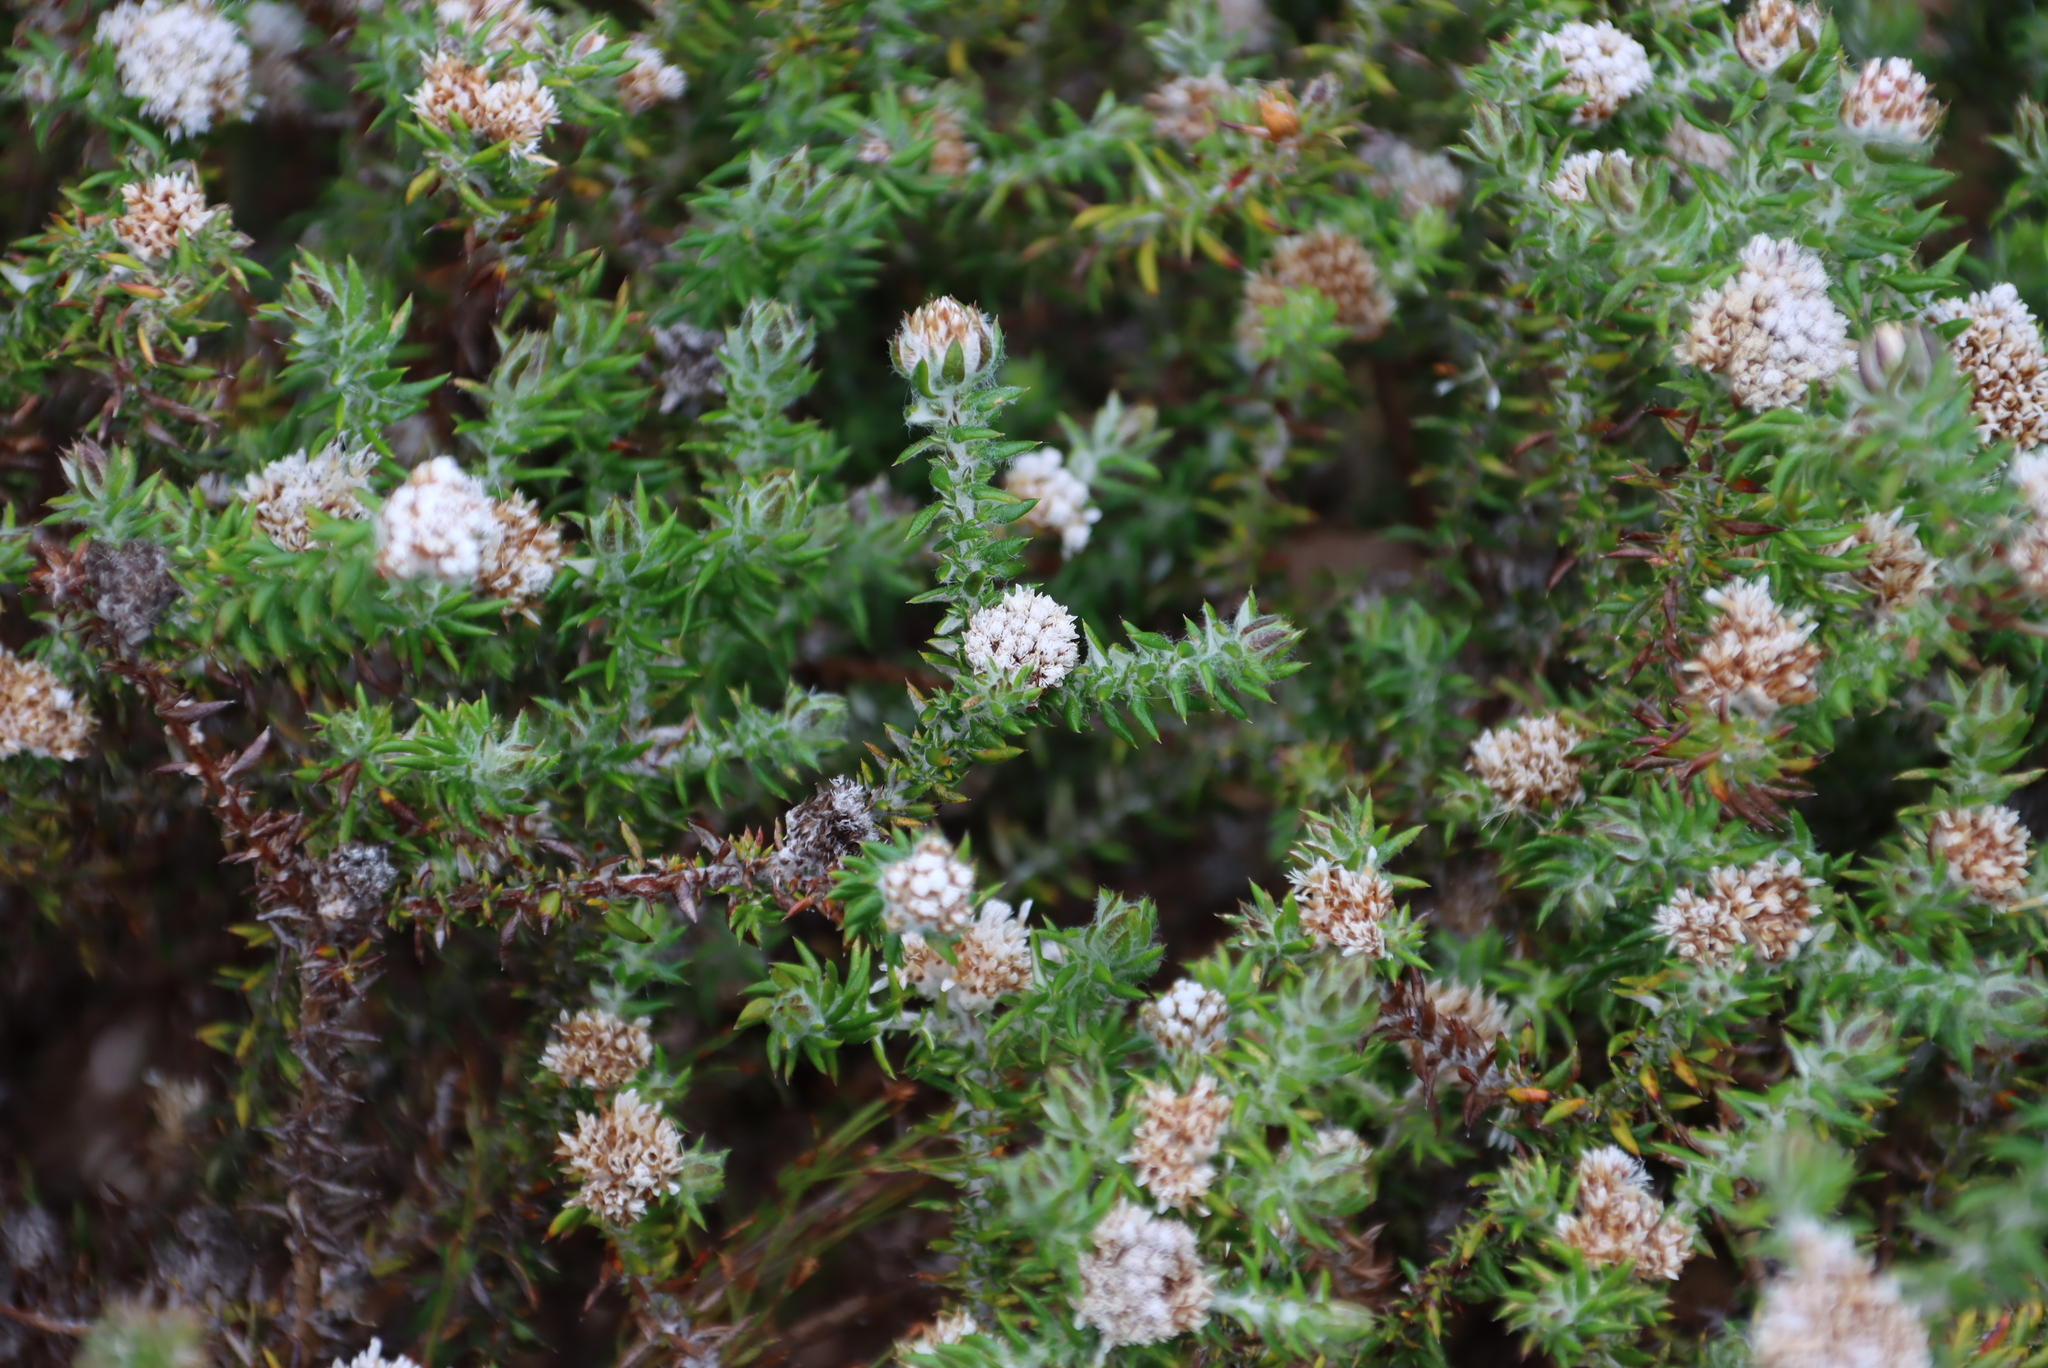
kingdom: Plantae
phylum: Tracheophyta
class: Magnoliopsida
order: Asterales
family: Asteraceae
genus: Metalasia
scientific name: Metalasia divergens
